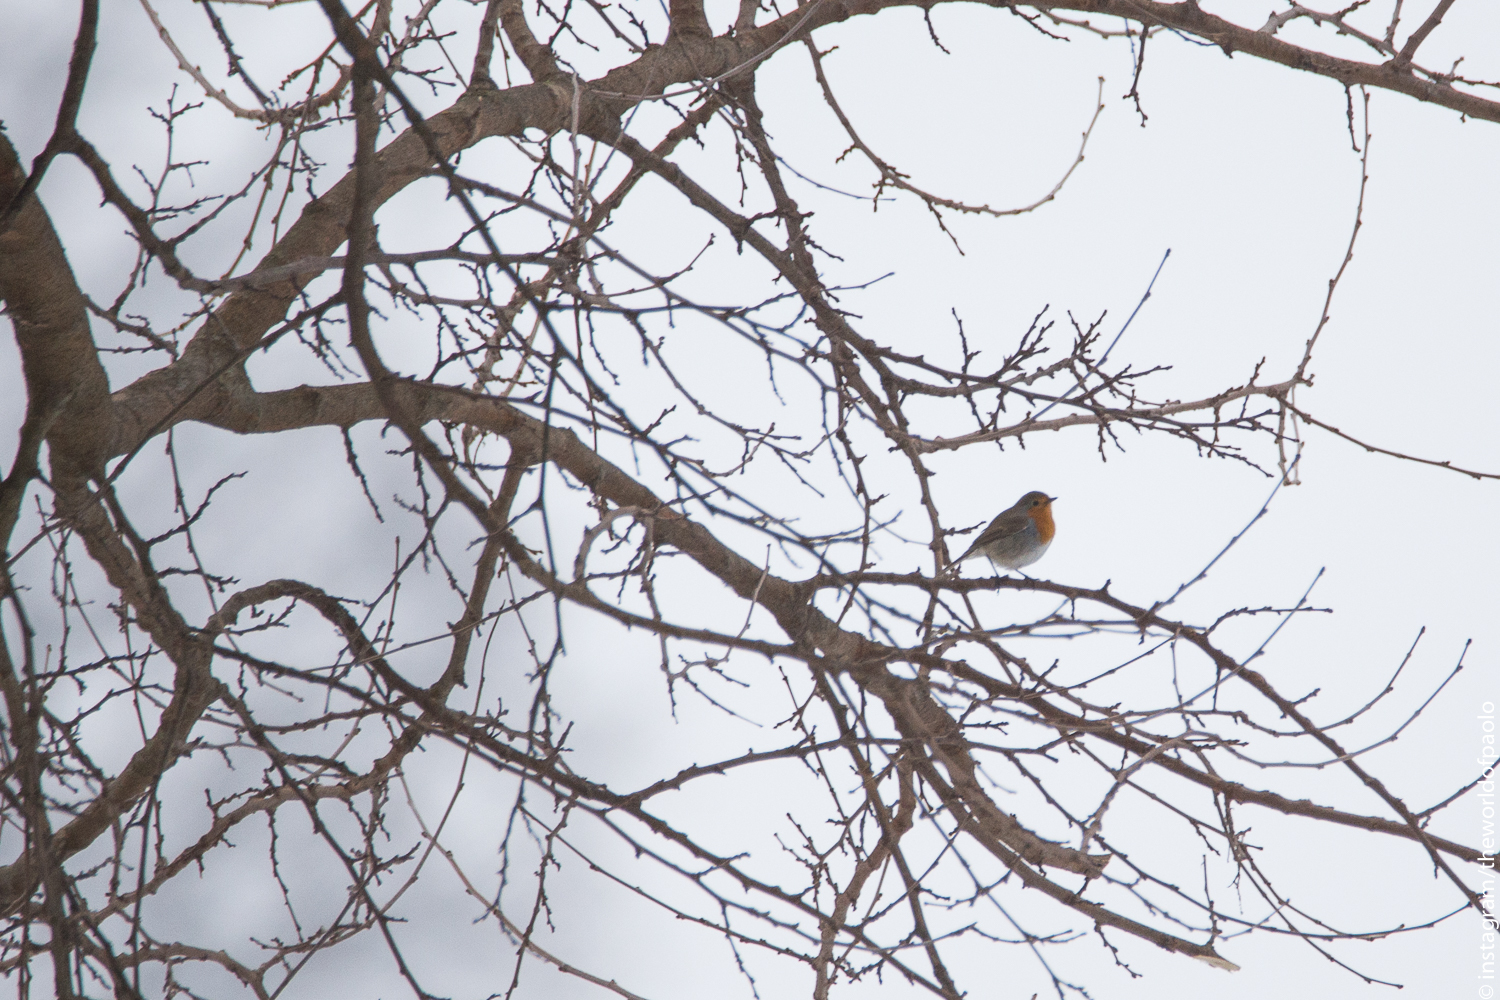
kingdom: Animalia
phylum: Chordata
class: Aves
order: Passeriformes
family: Muscicapidae
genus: Erithacus
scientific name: Erithacus rubecula
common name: European robin
